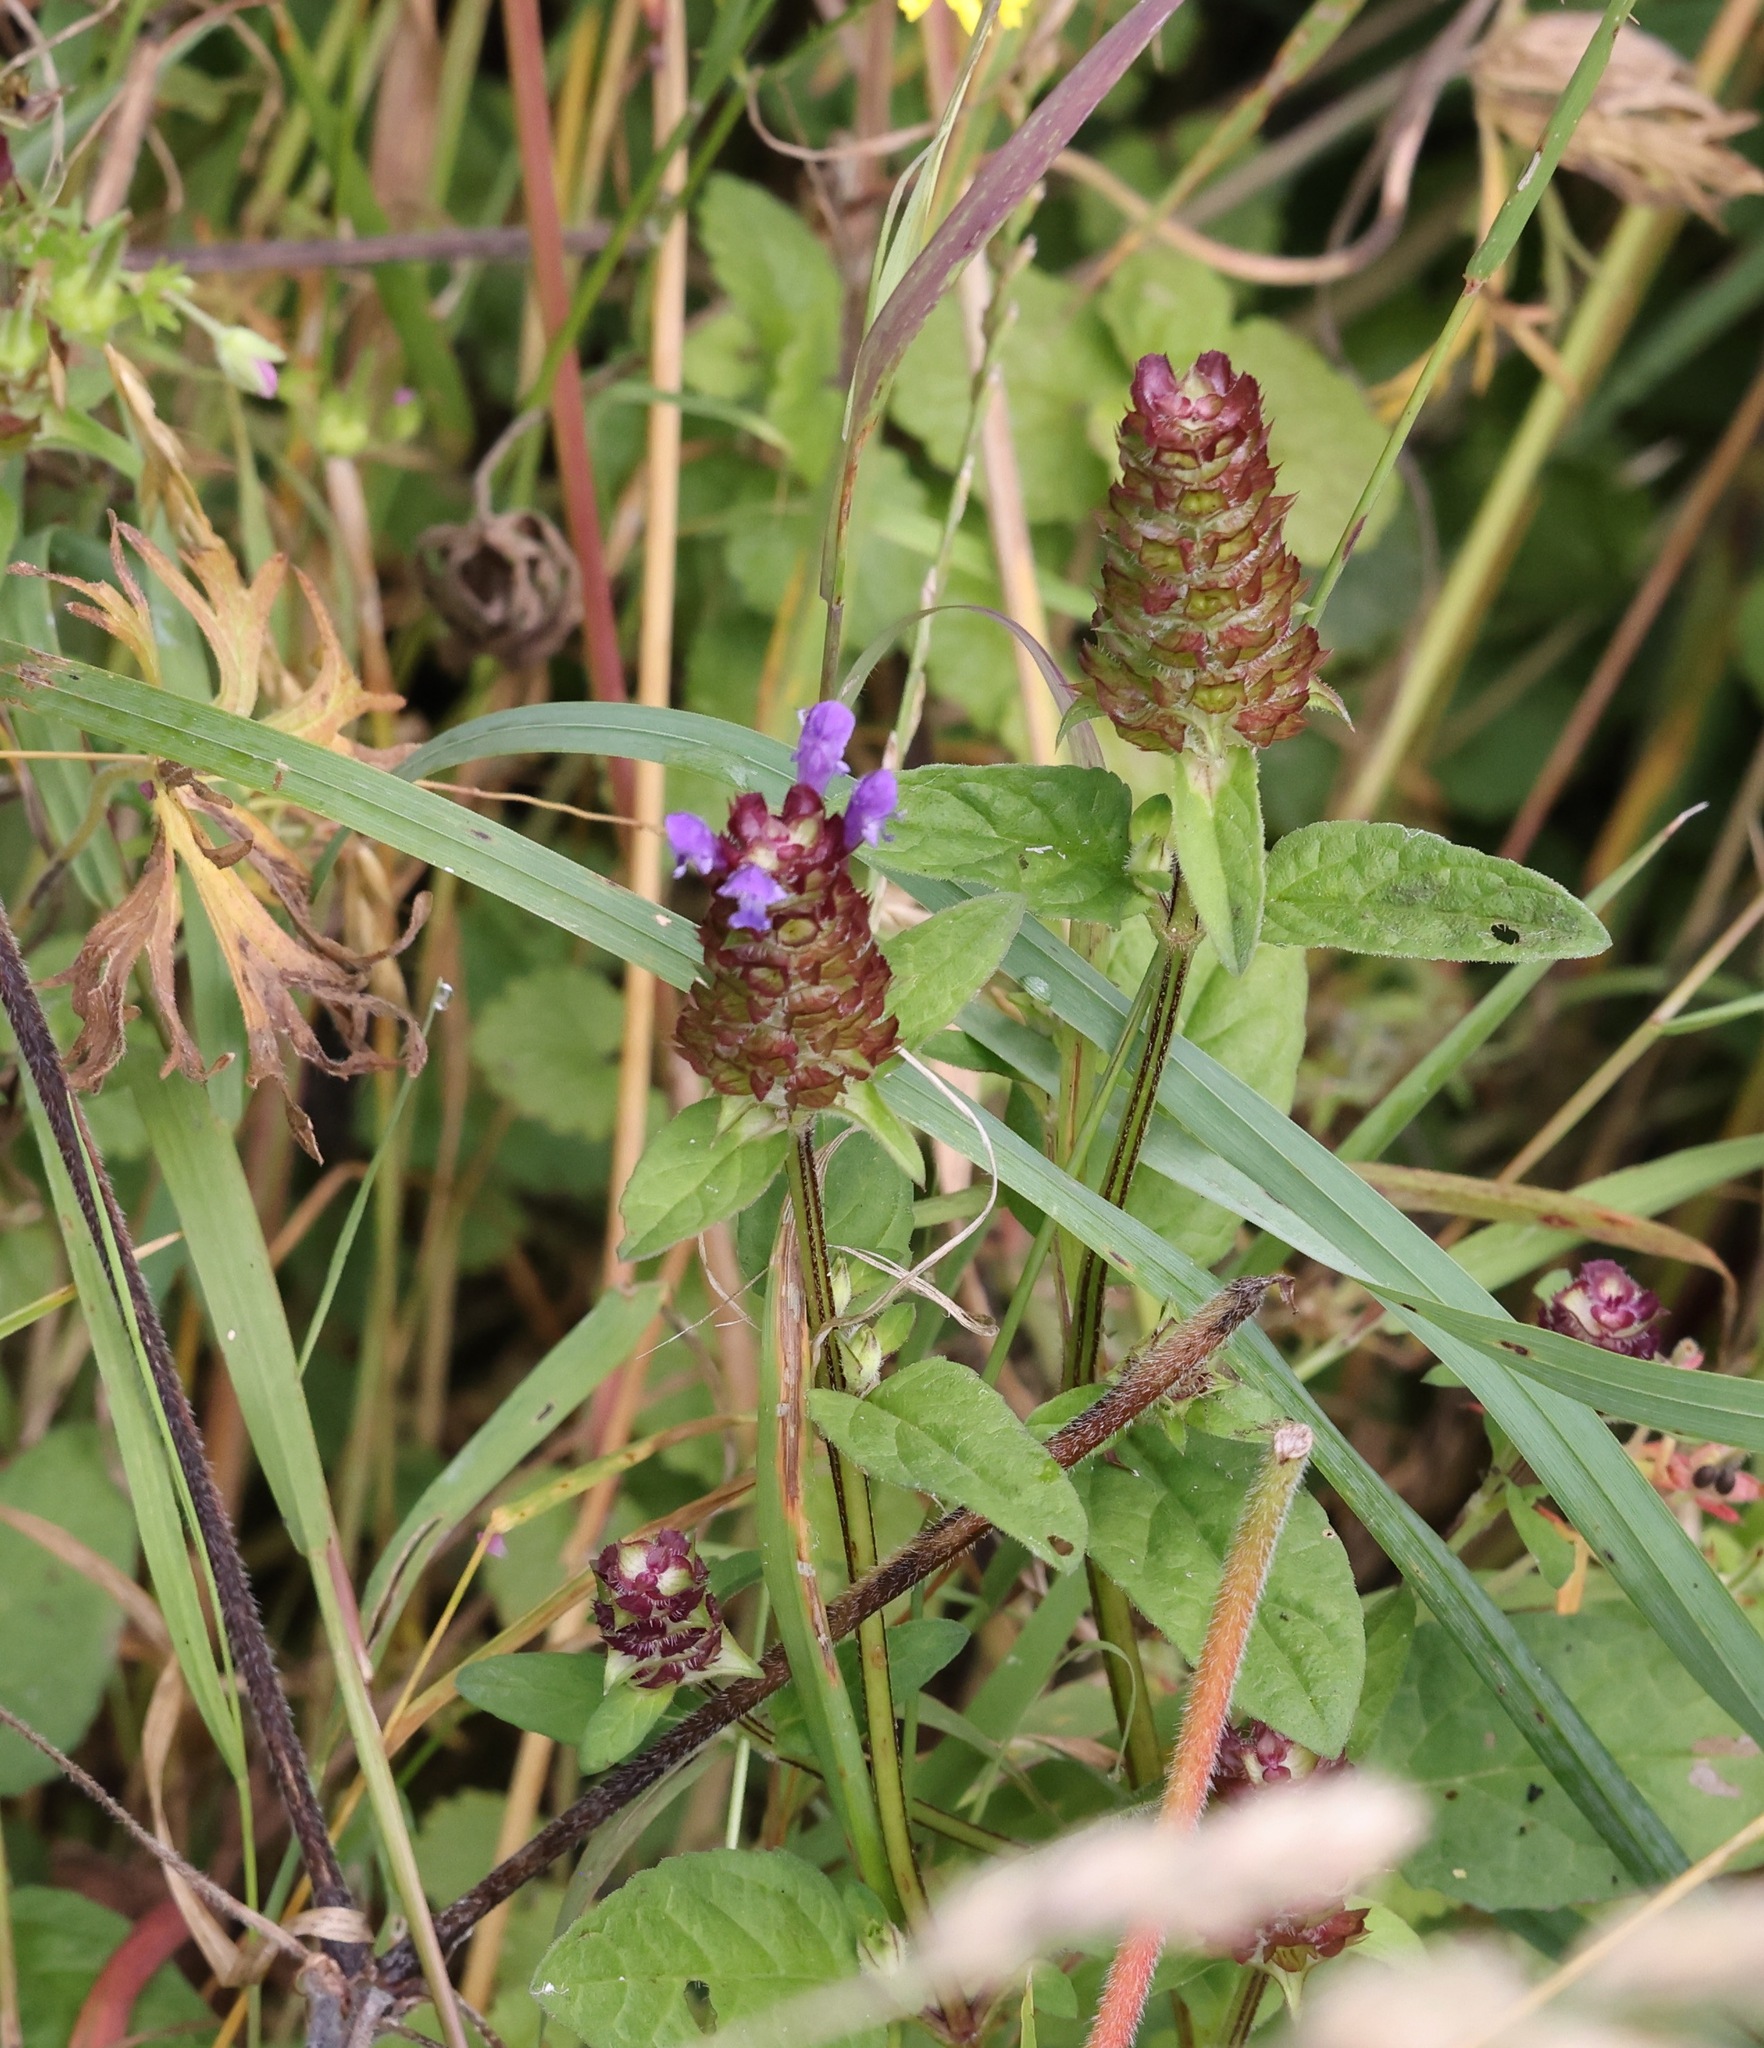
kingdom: Plantae
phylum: Tracheophyta
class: Magnoliopsida
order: Lamiales
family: Lamiaceae
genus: Prunella
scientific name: Prunella vulgaris
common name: Heal-all
